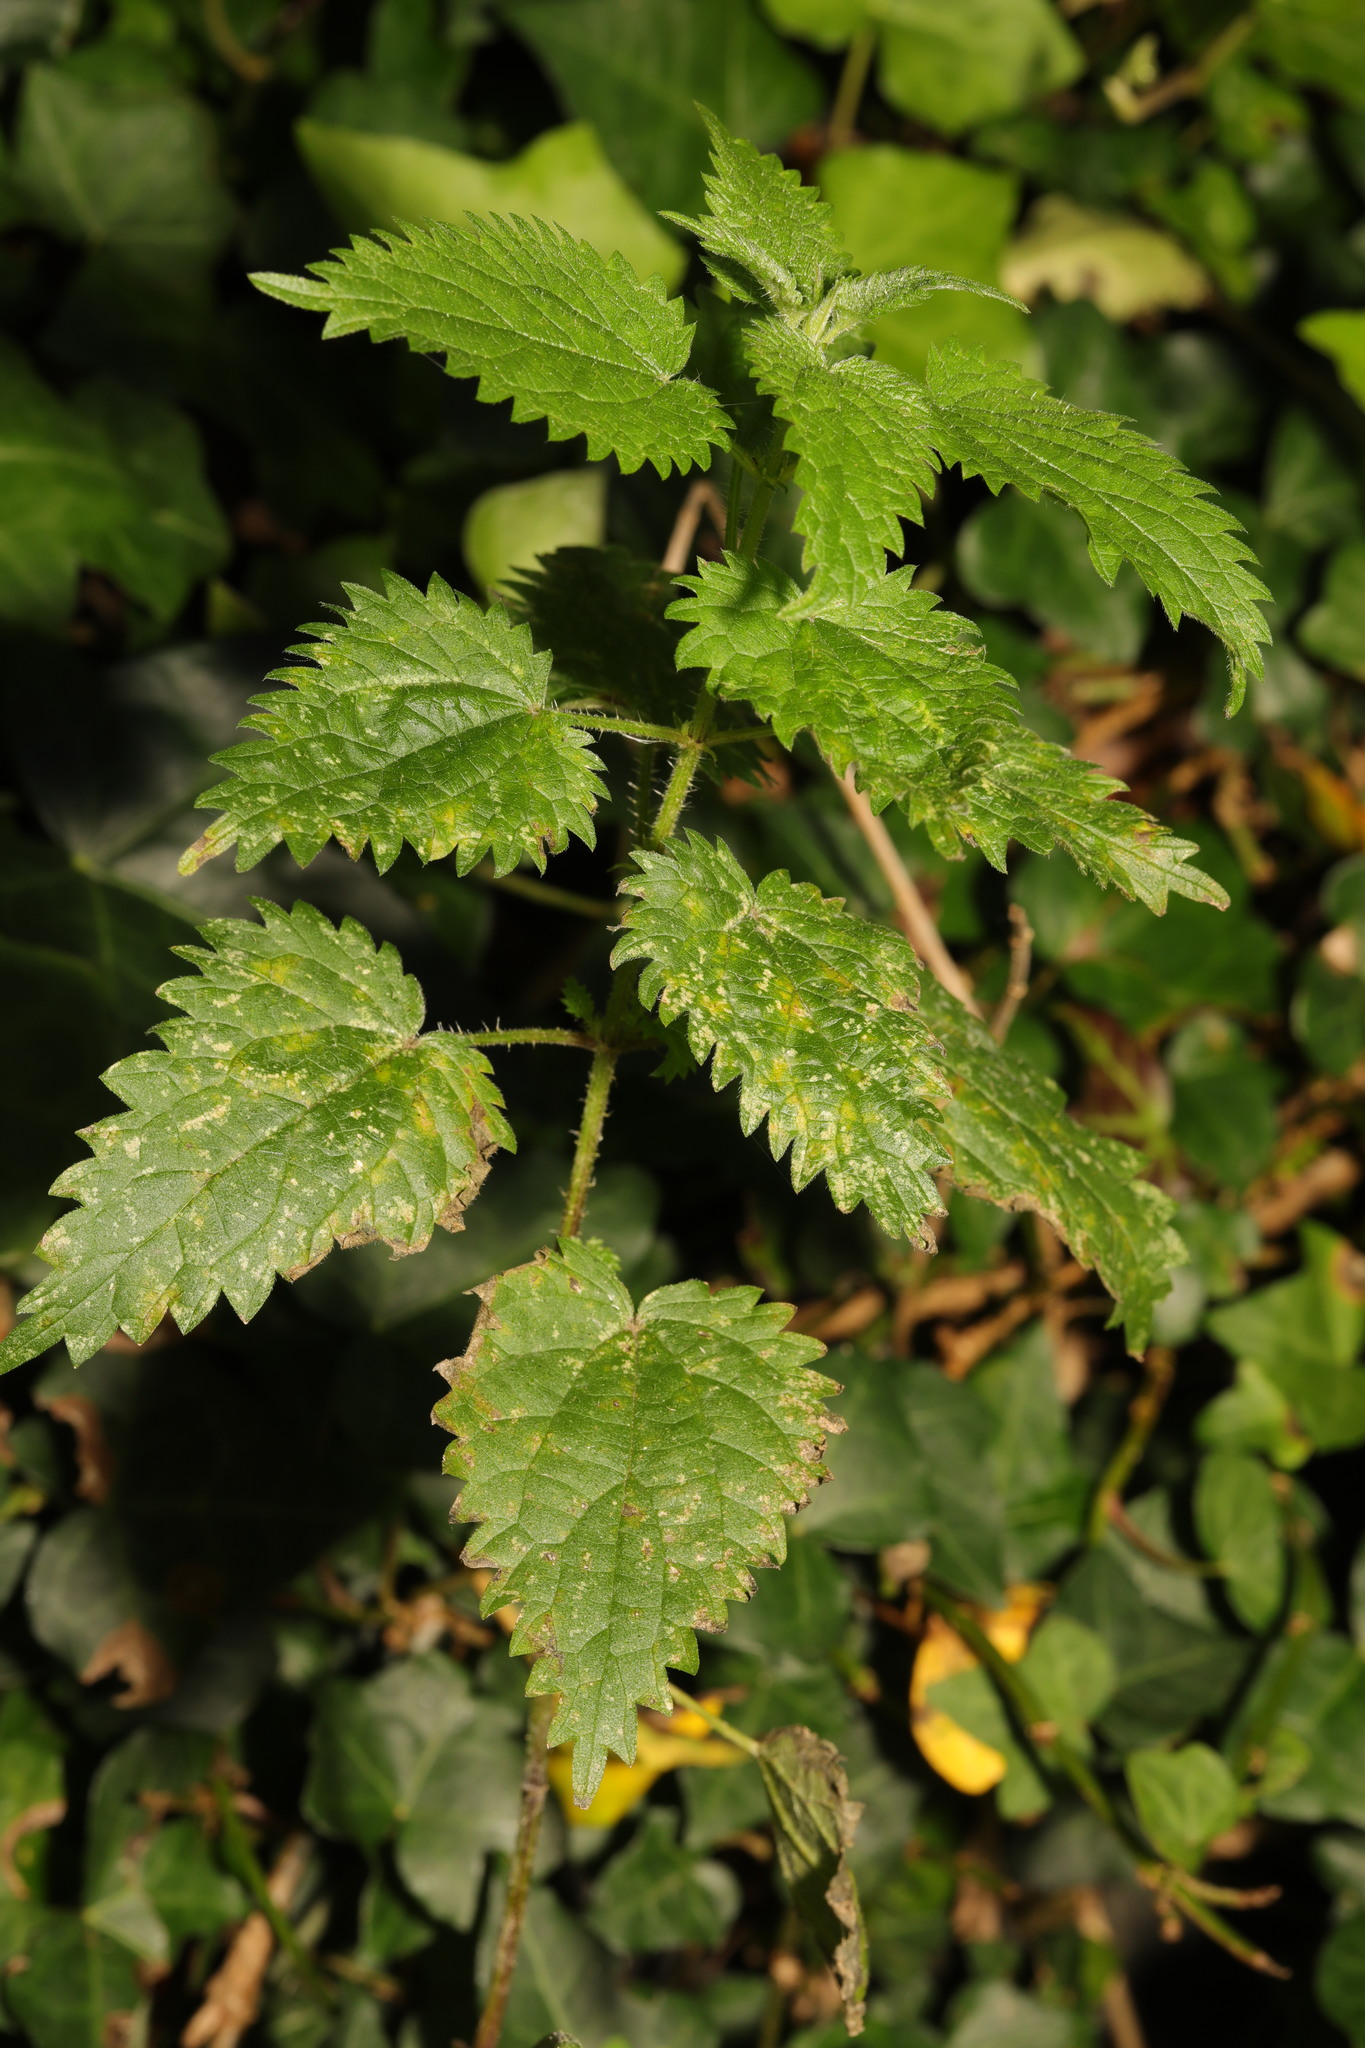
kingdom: Plantae
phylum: Tracheophyta
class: Magnoliopsida
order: Rosales
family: Urticaceae
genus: Urtica
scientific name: Urtica dioica
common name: Common nettle
